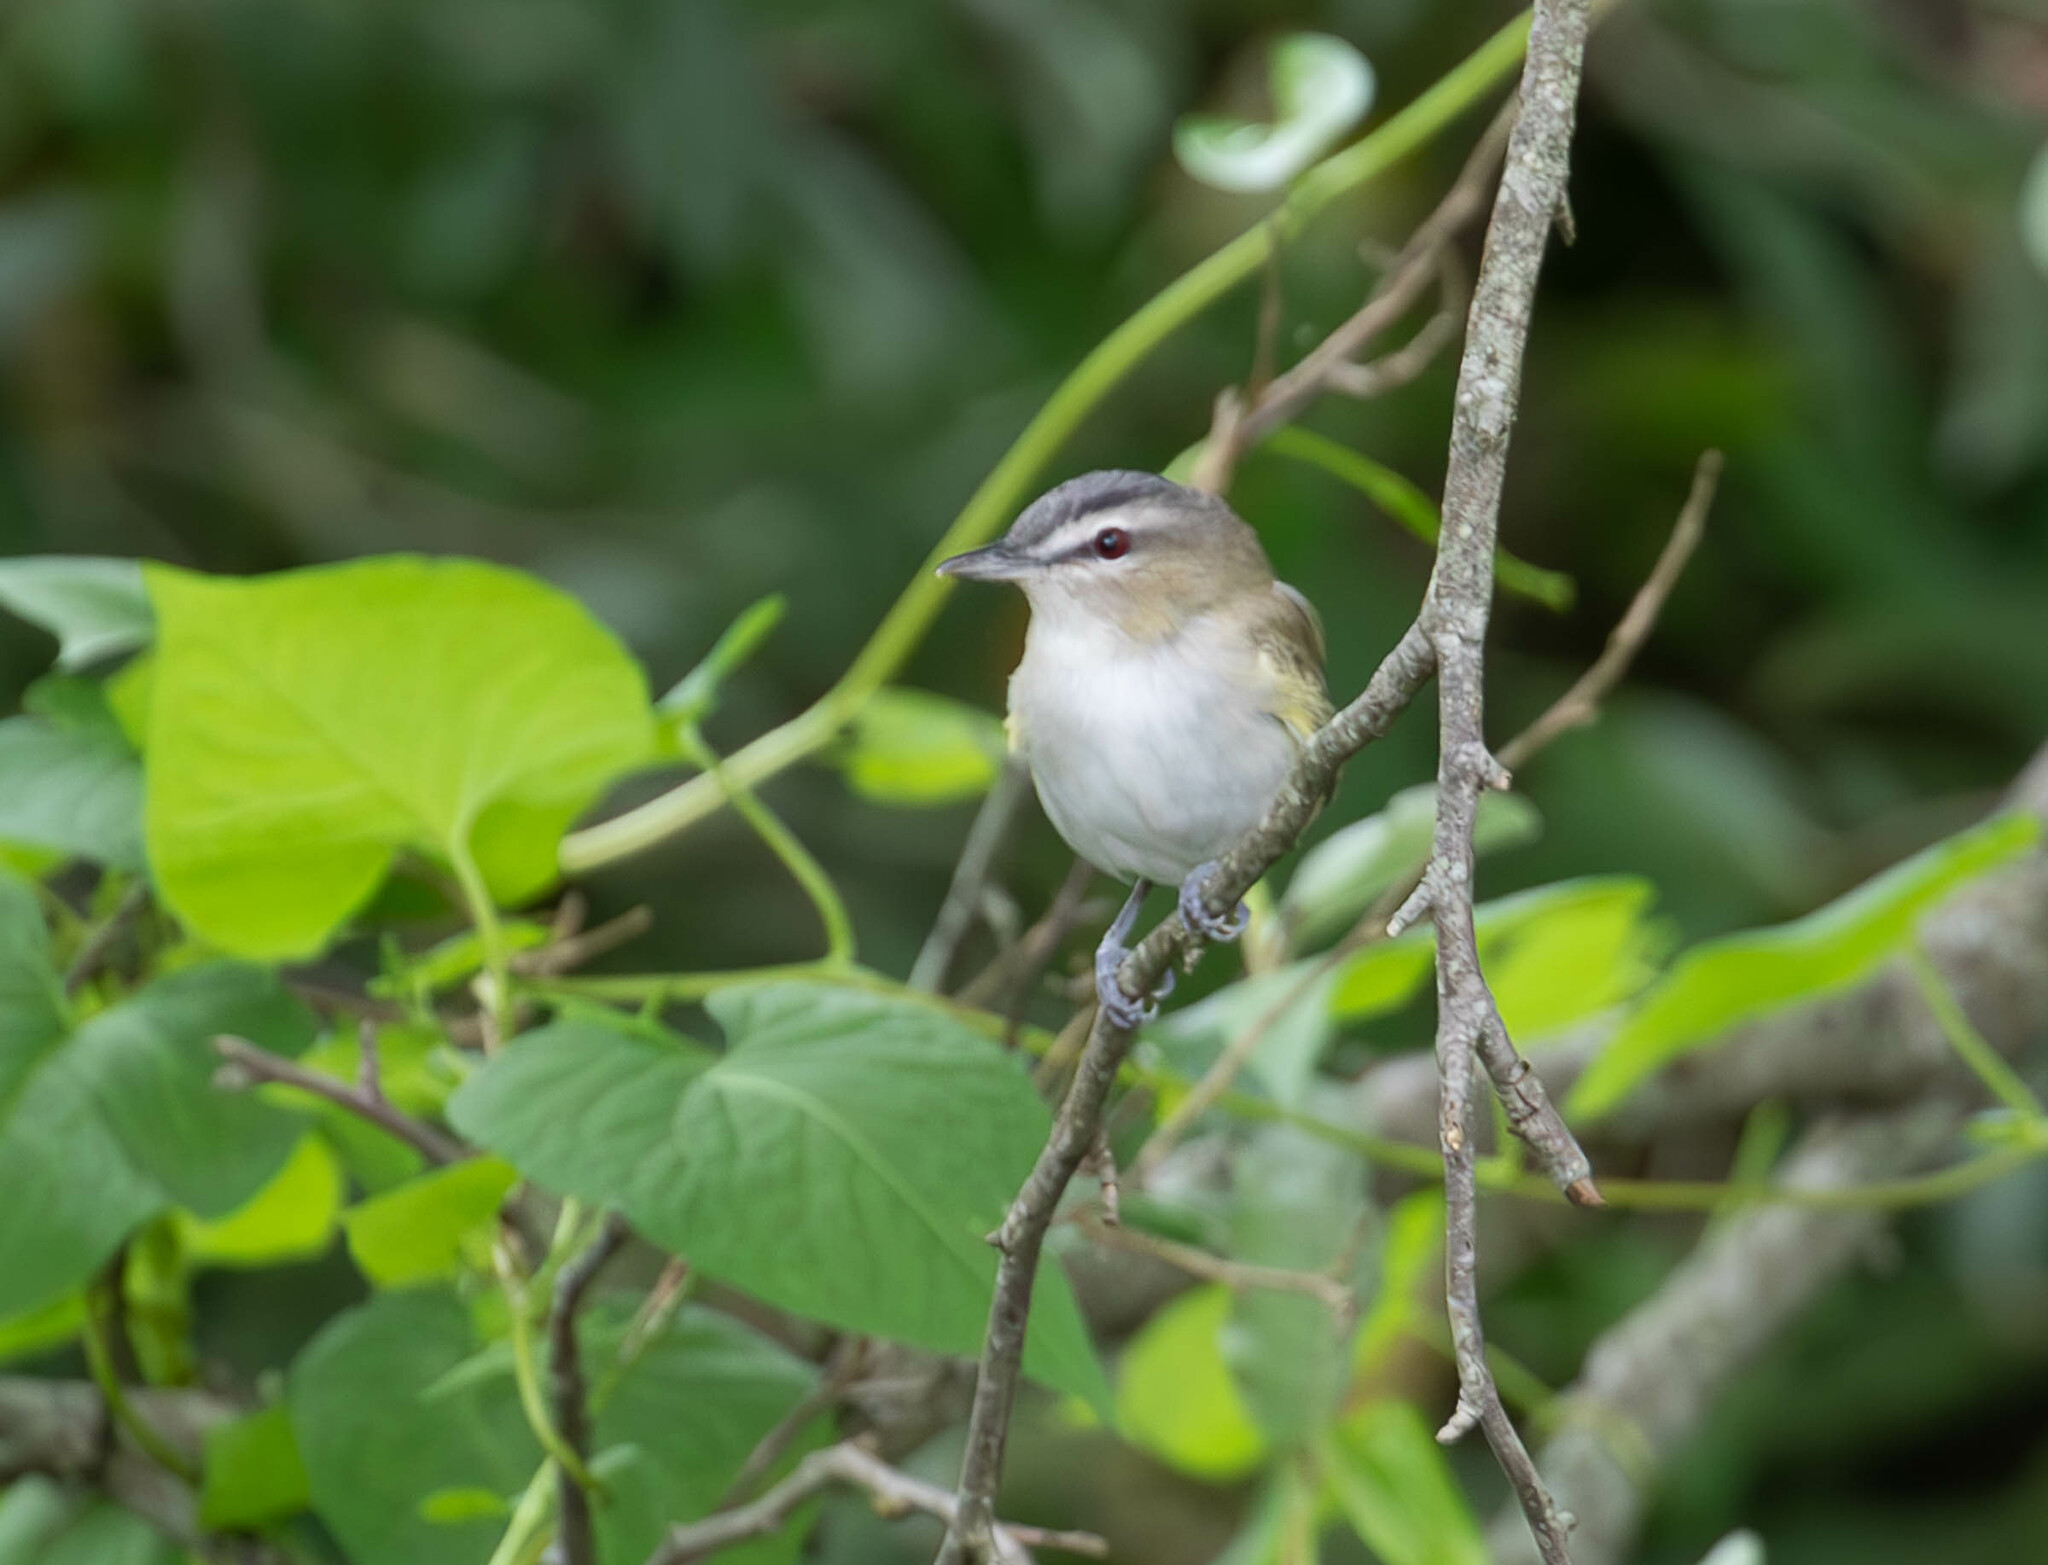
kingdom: Animalia
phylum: Chordata
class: Aves
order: Passeriformes
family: Vireonidae
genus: Vireo
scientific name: Vireo olivaceus
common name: Red-eyed vireo
